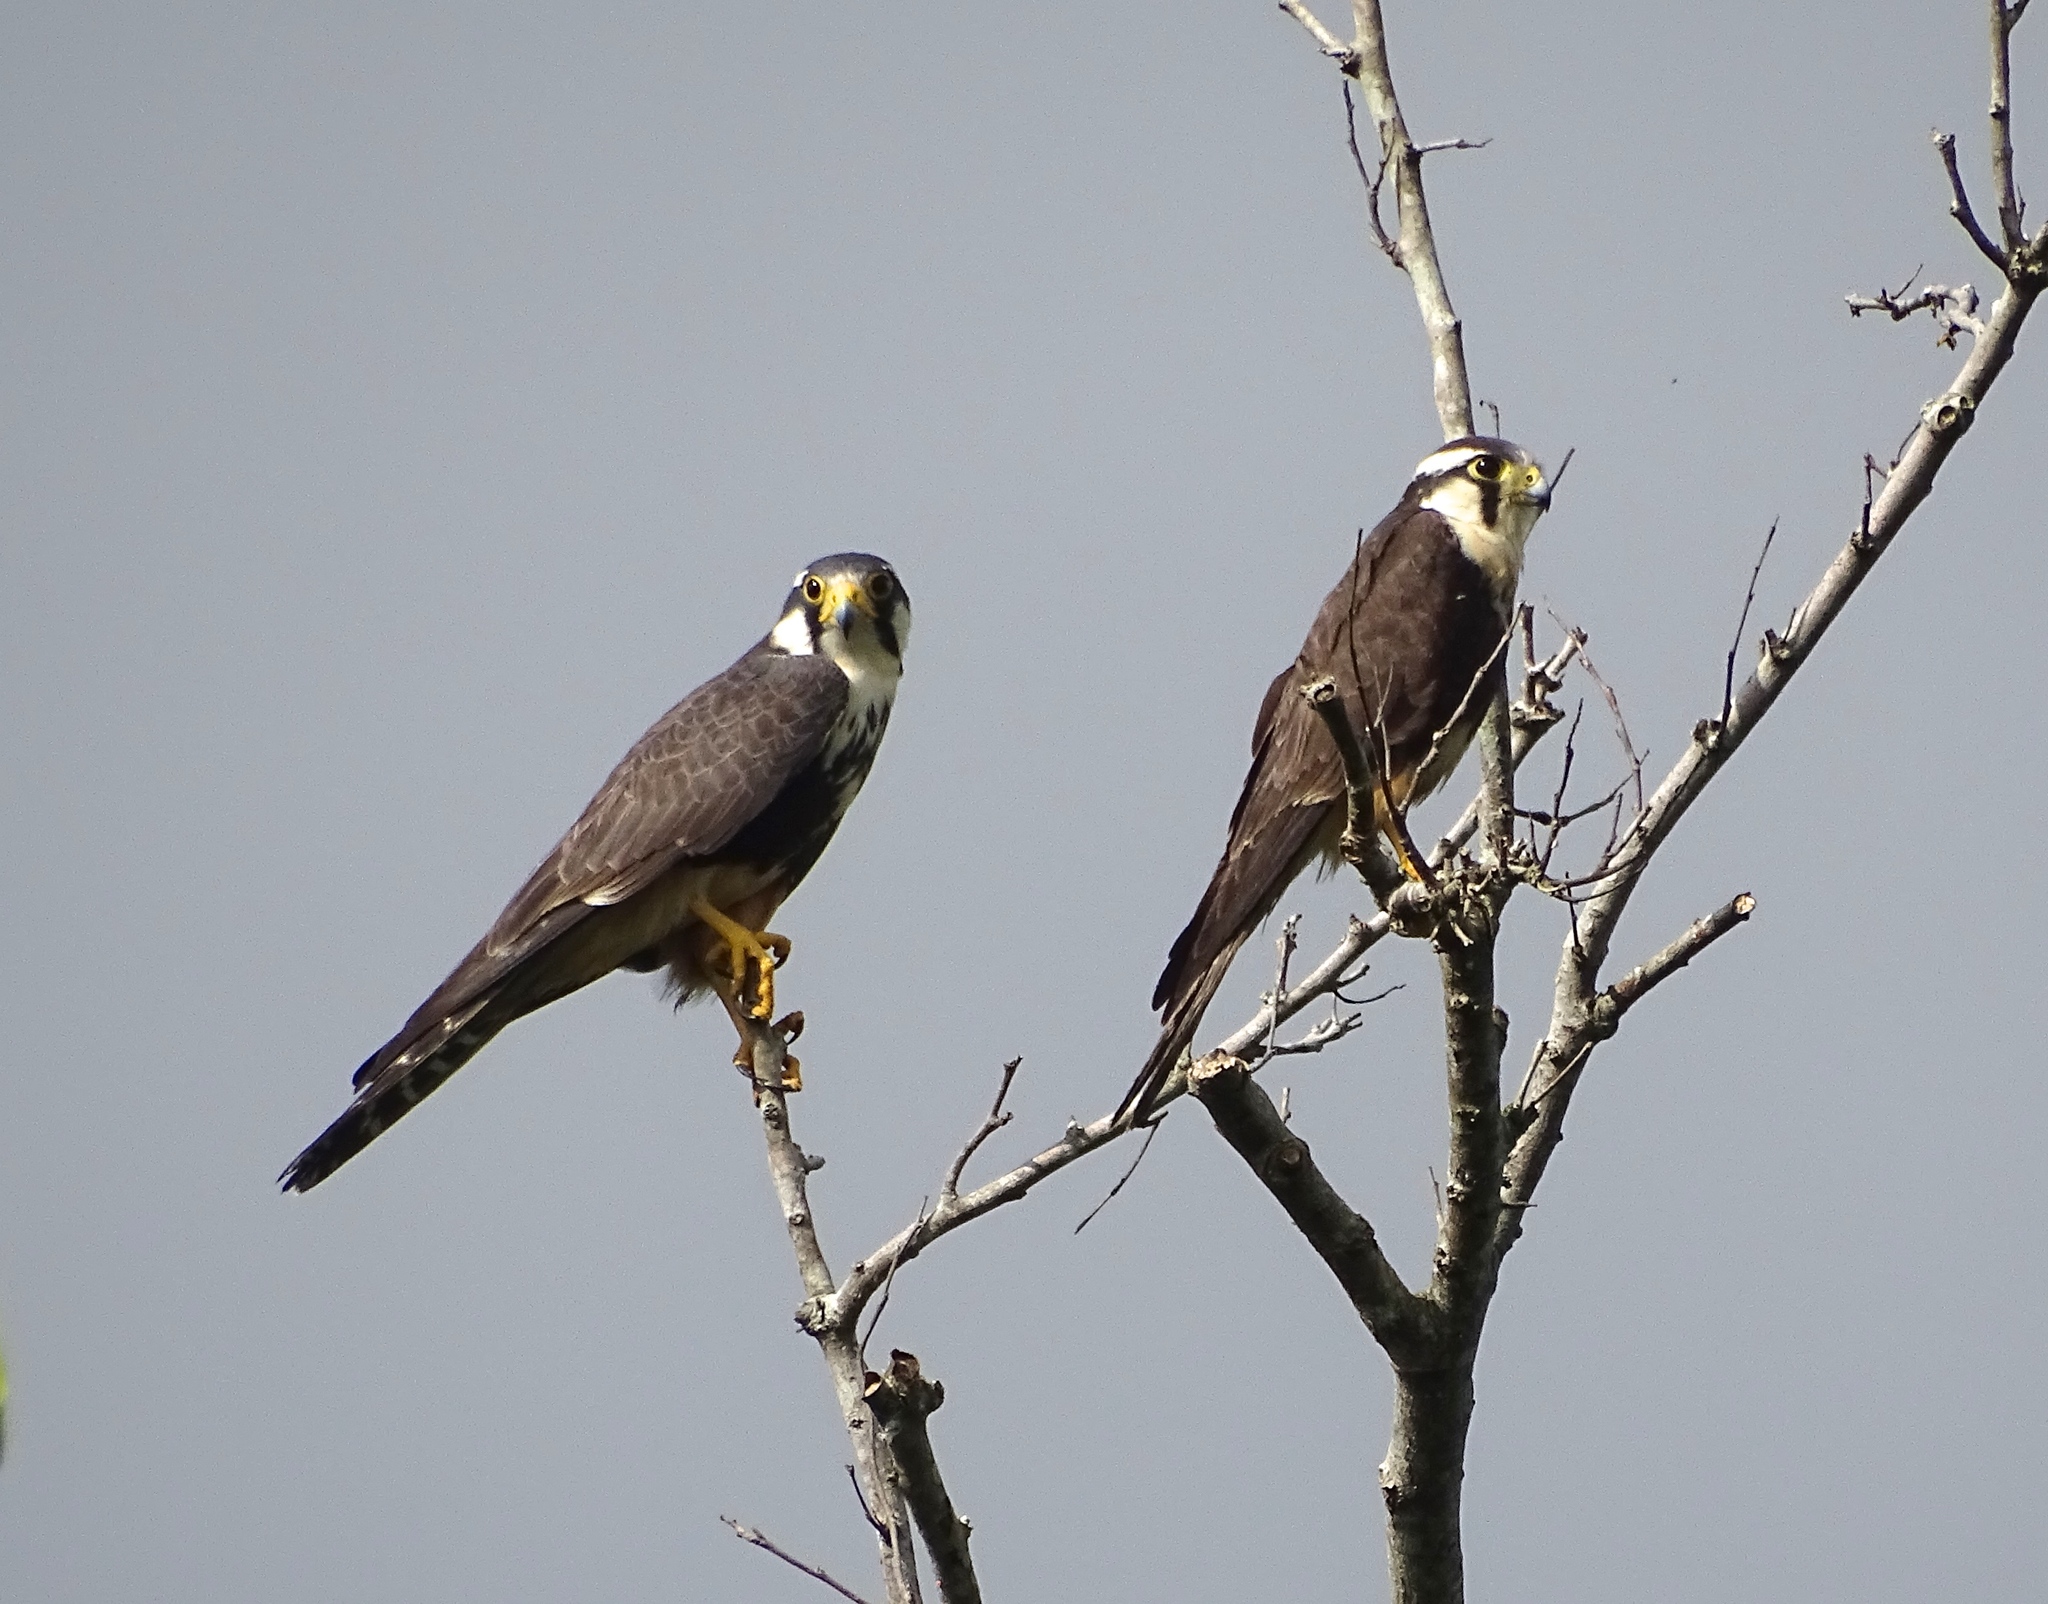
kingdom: Animalia
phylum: Chordata
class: Aves
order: Falconiformes
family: Falconidae
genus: Falco
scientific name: Falco femoralis
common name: Aplomado falcon
